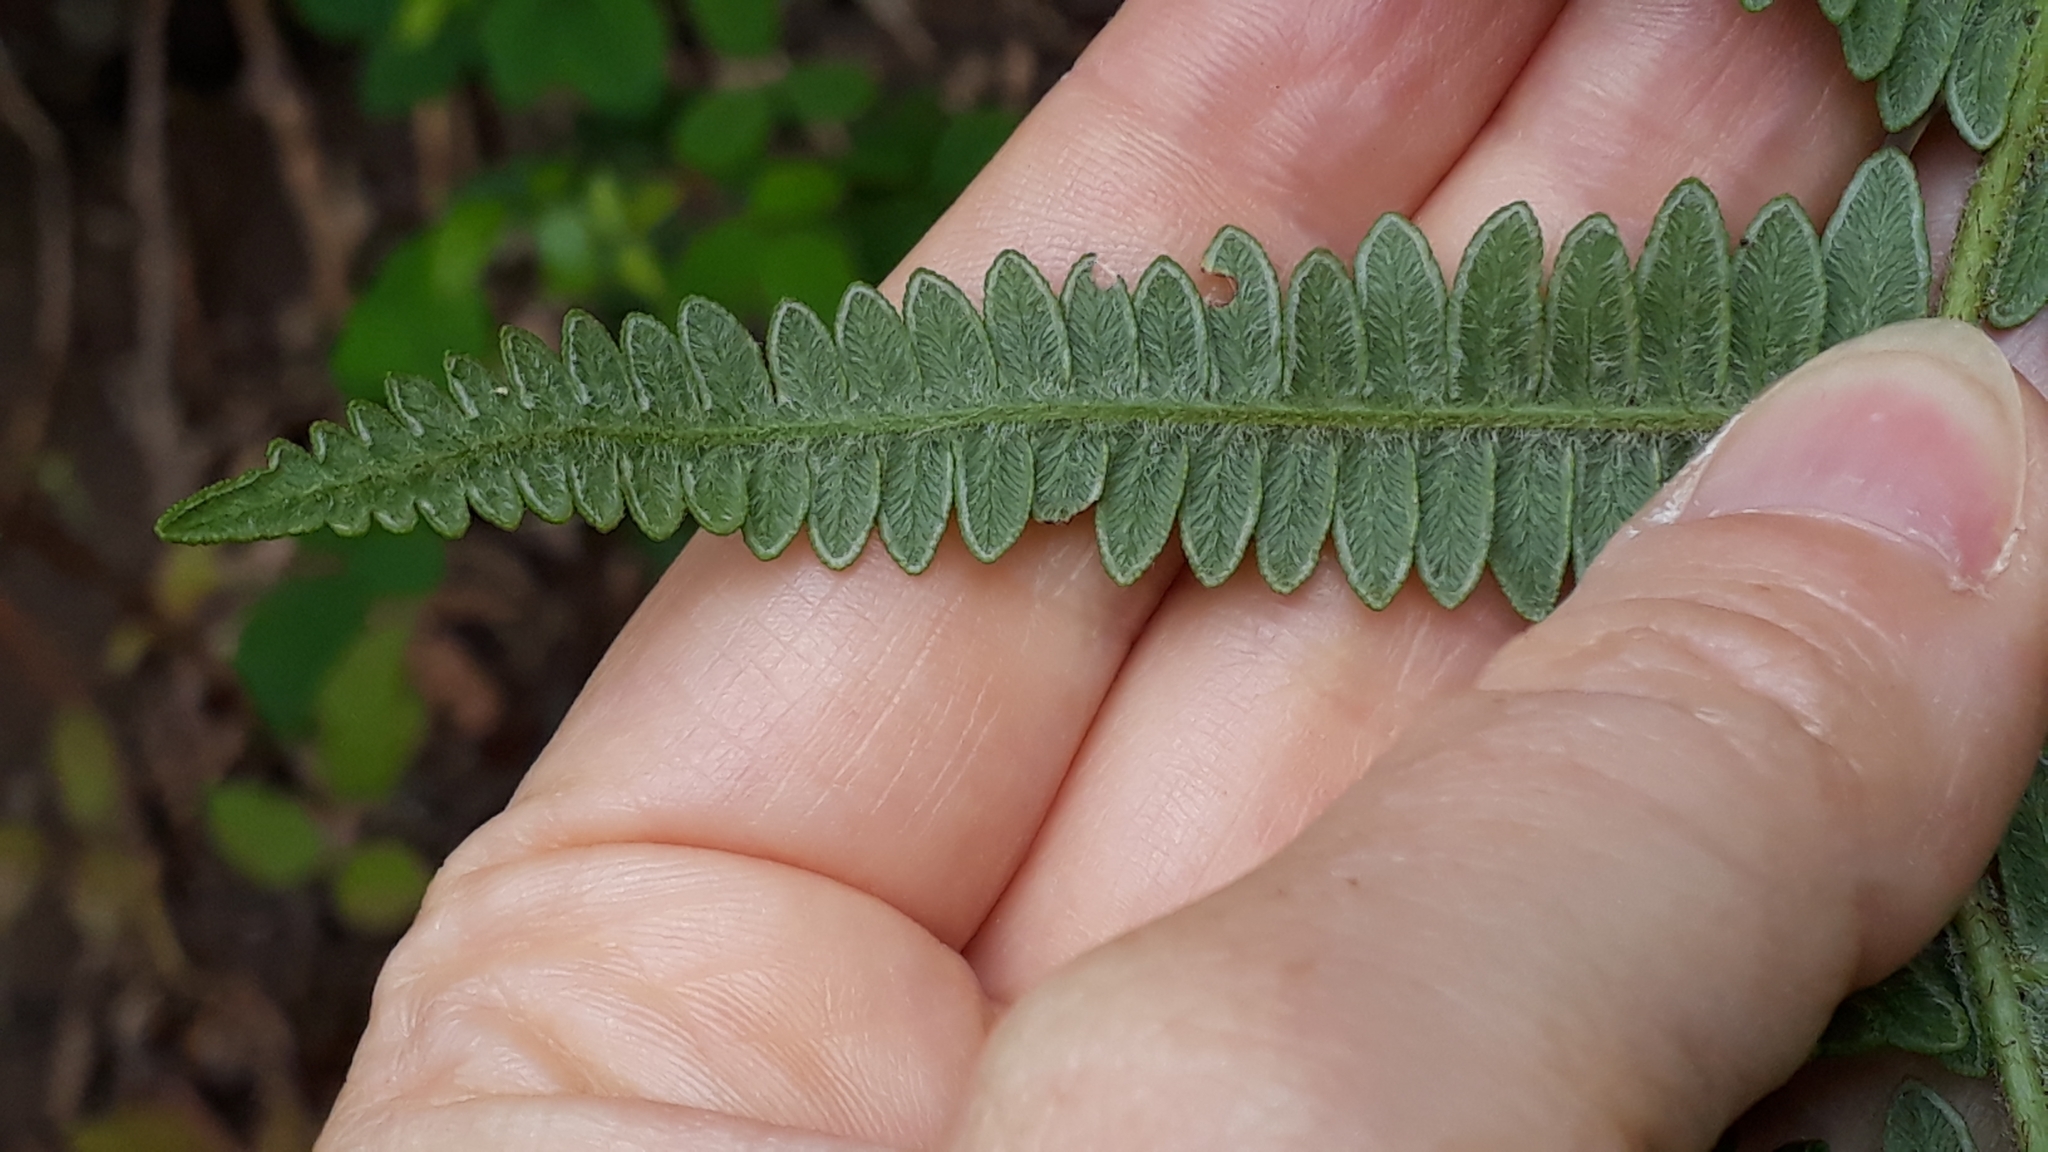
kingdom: Plantae
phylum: Tracheophyta
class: Polypodiopsida
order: Polypodiales
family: Dennstaedtiaceae
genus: Pteridium
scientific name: Pteridium aquilinum
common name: Bracken
